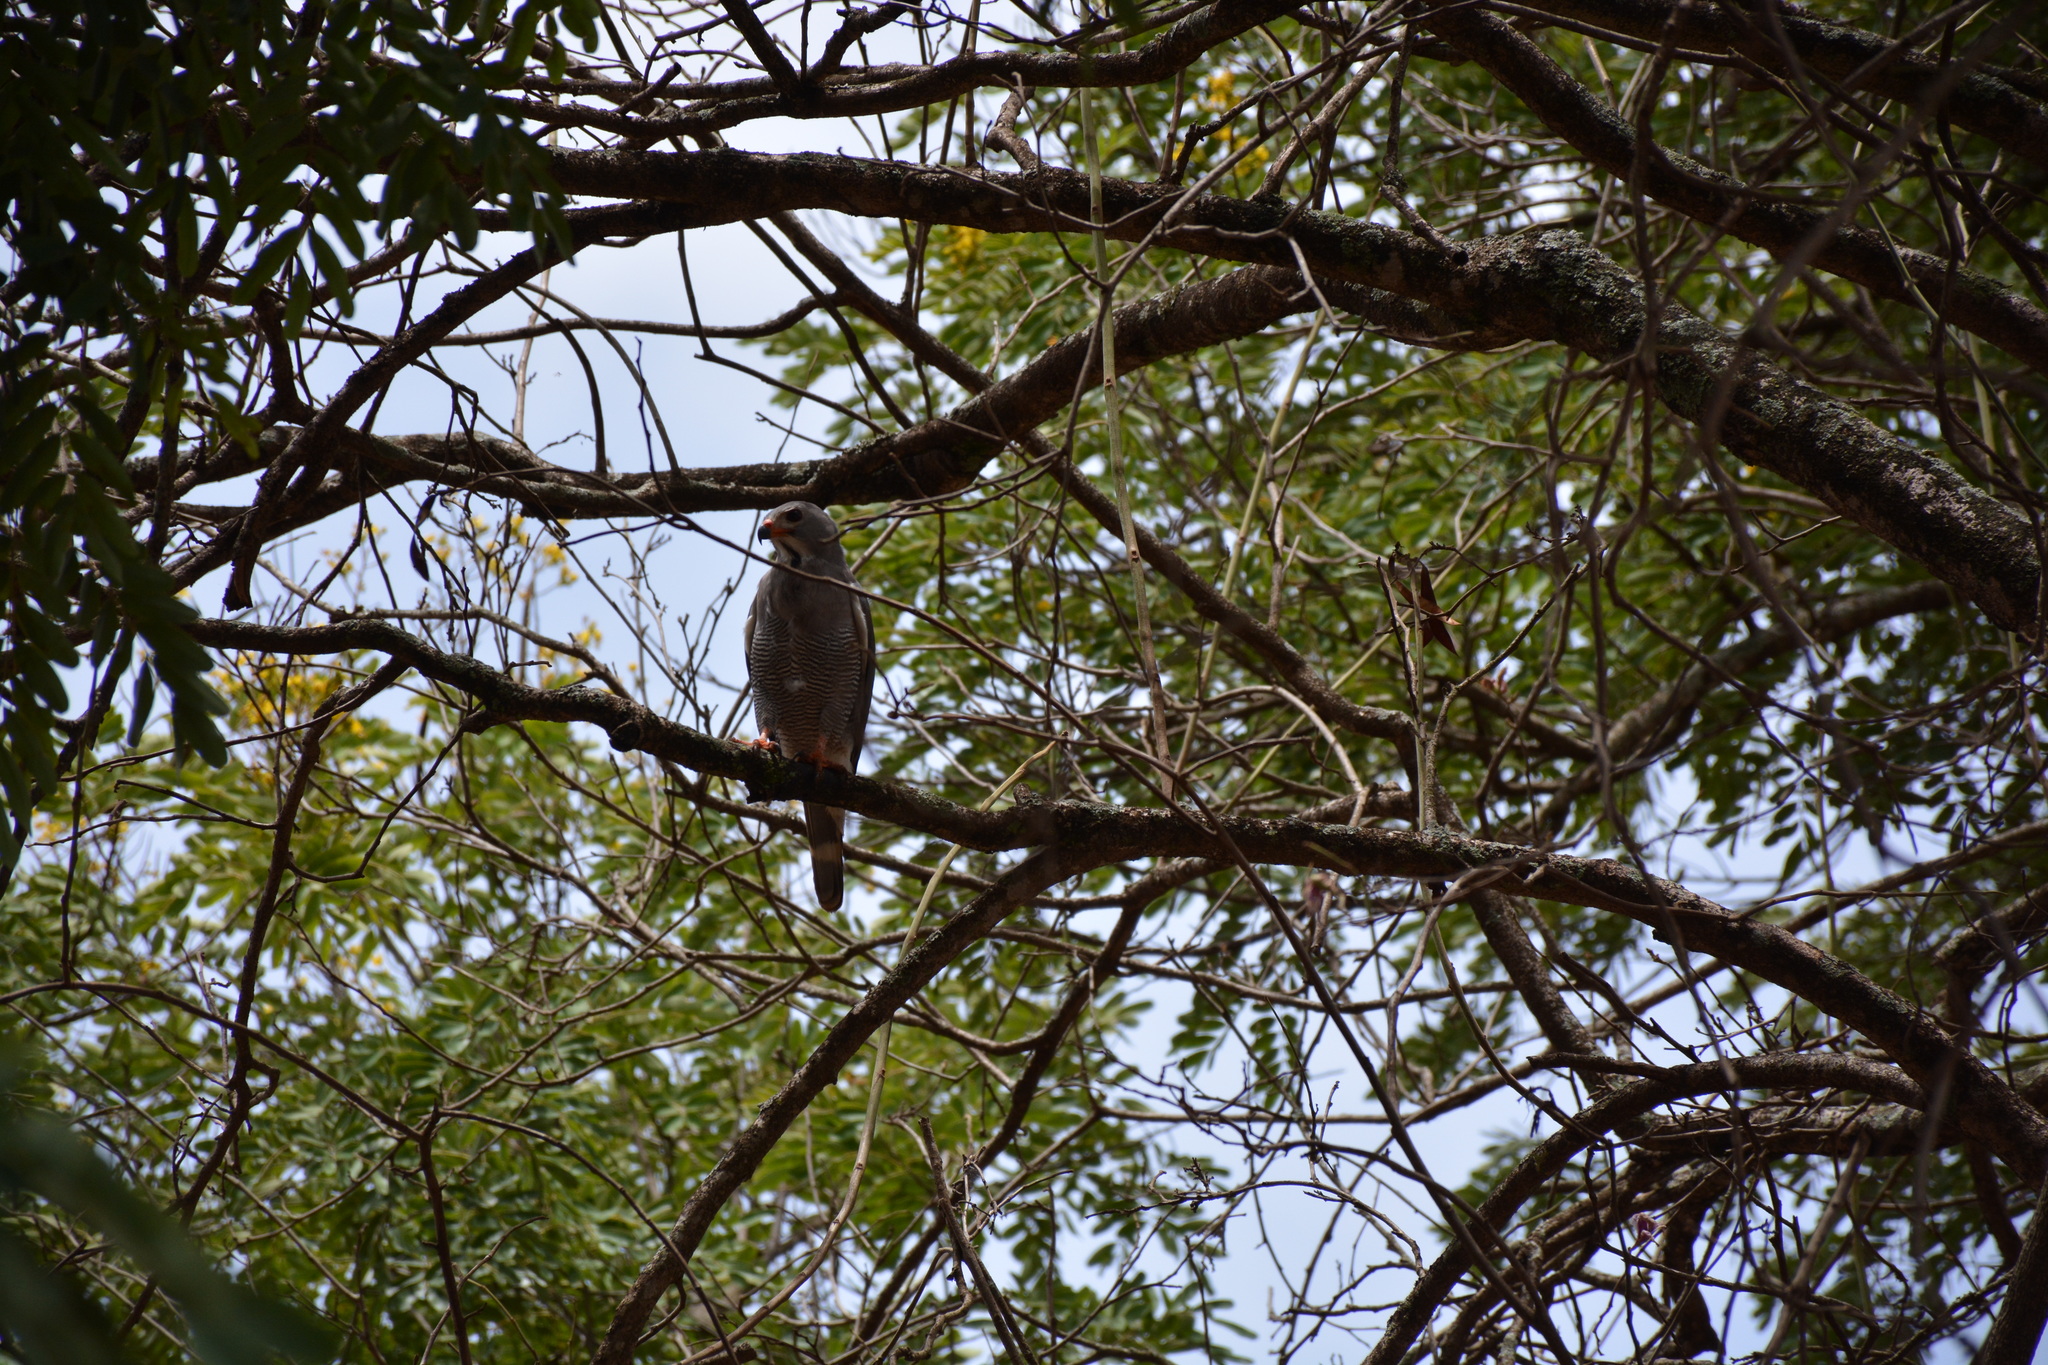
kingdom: Animalia
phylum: Chordata
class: Aves
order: Accipitriformes
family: Accipitridae
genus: Kaupifalco
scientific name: Kaupifalco monogrammicus
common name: Lizard buzzard
